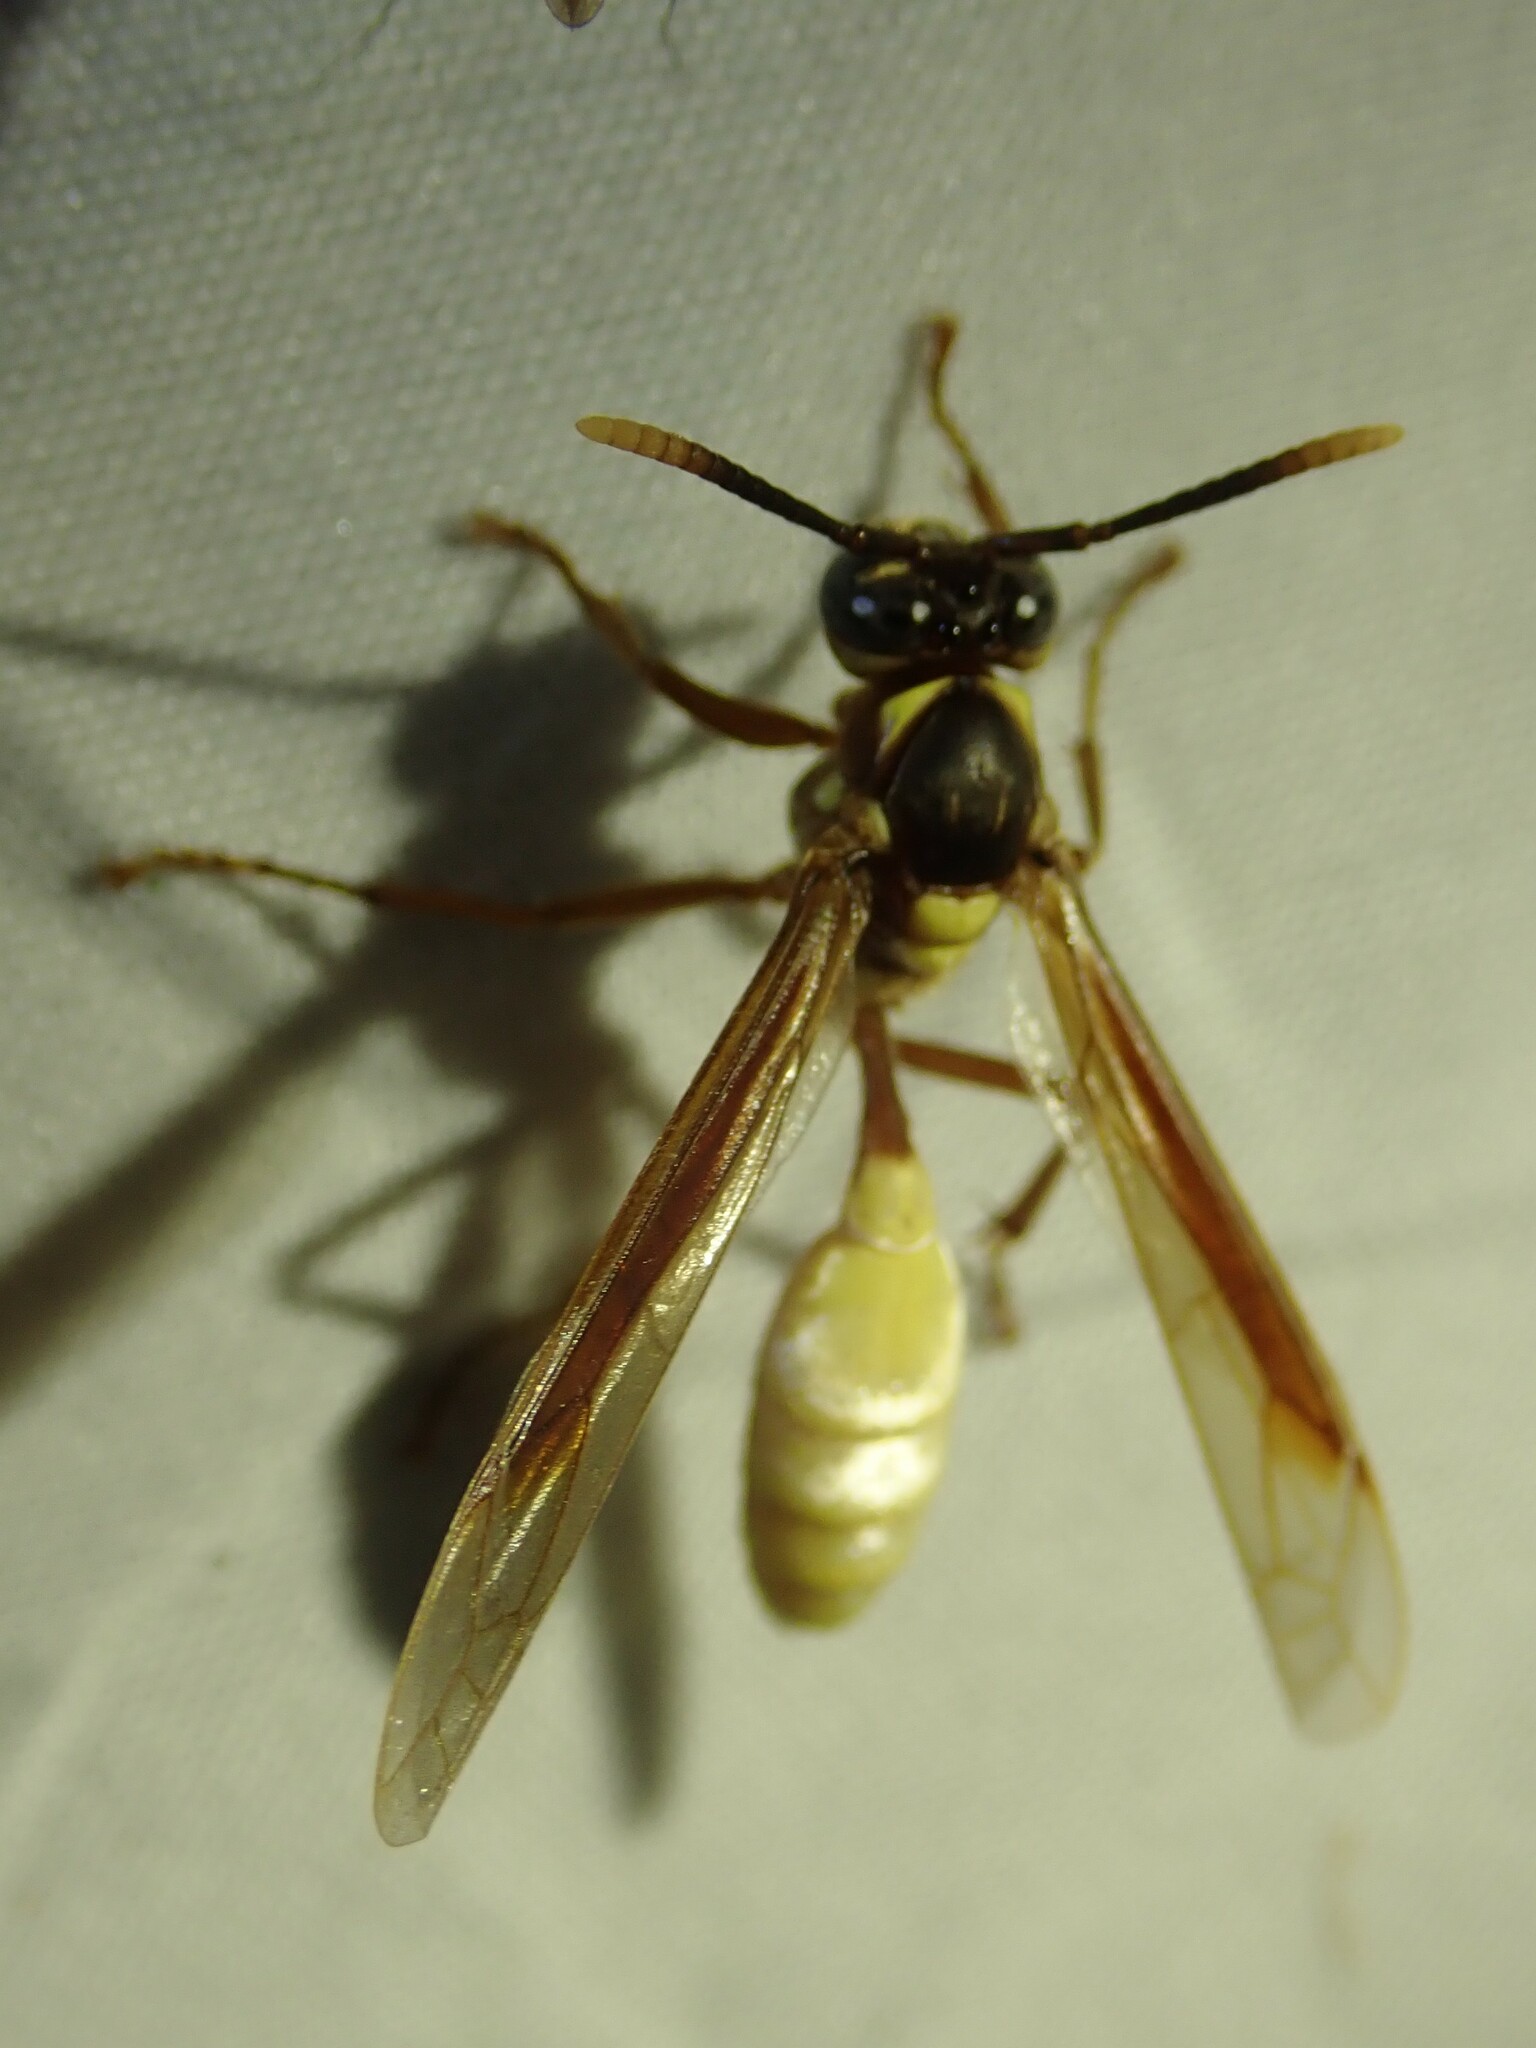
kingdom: Animalia
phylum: Arthropoda
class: Insecta
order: Hymenoptera
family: Vespidae
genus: Apoica
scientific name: Apoica pallens
